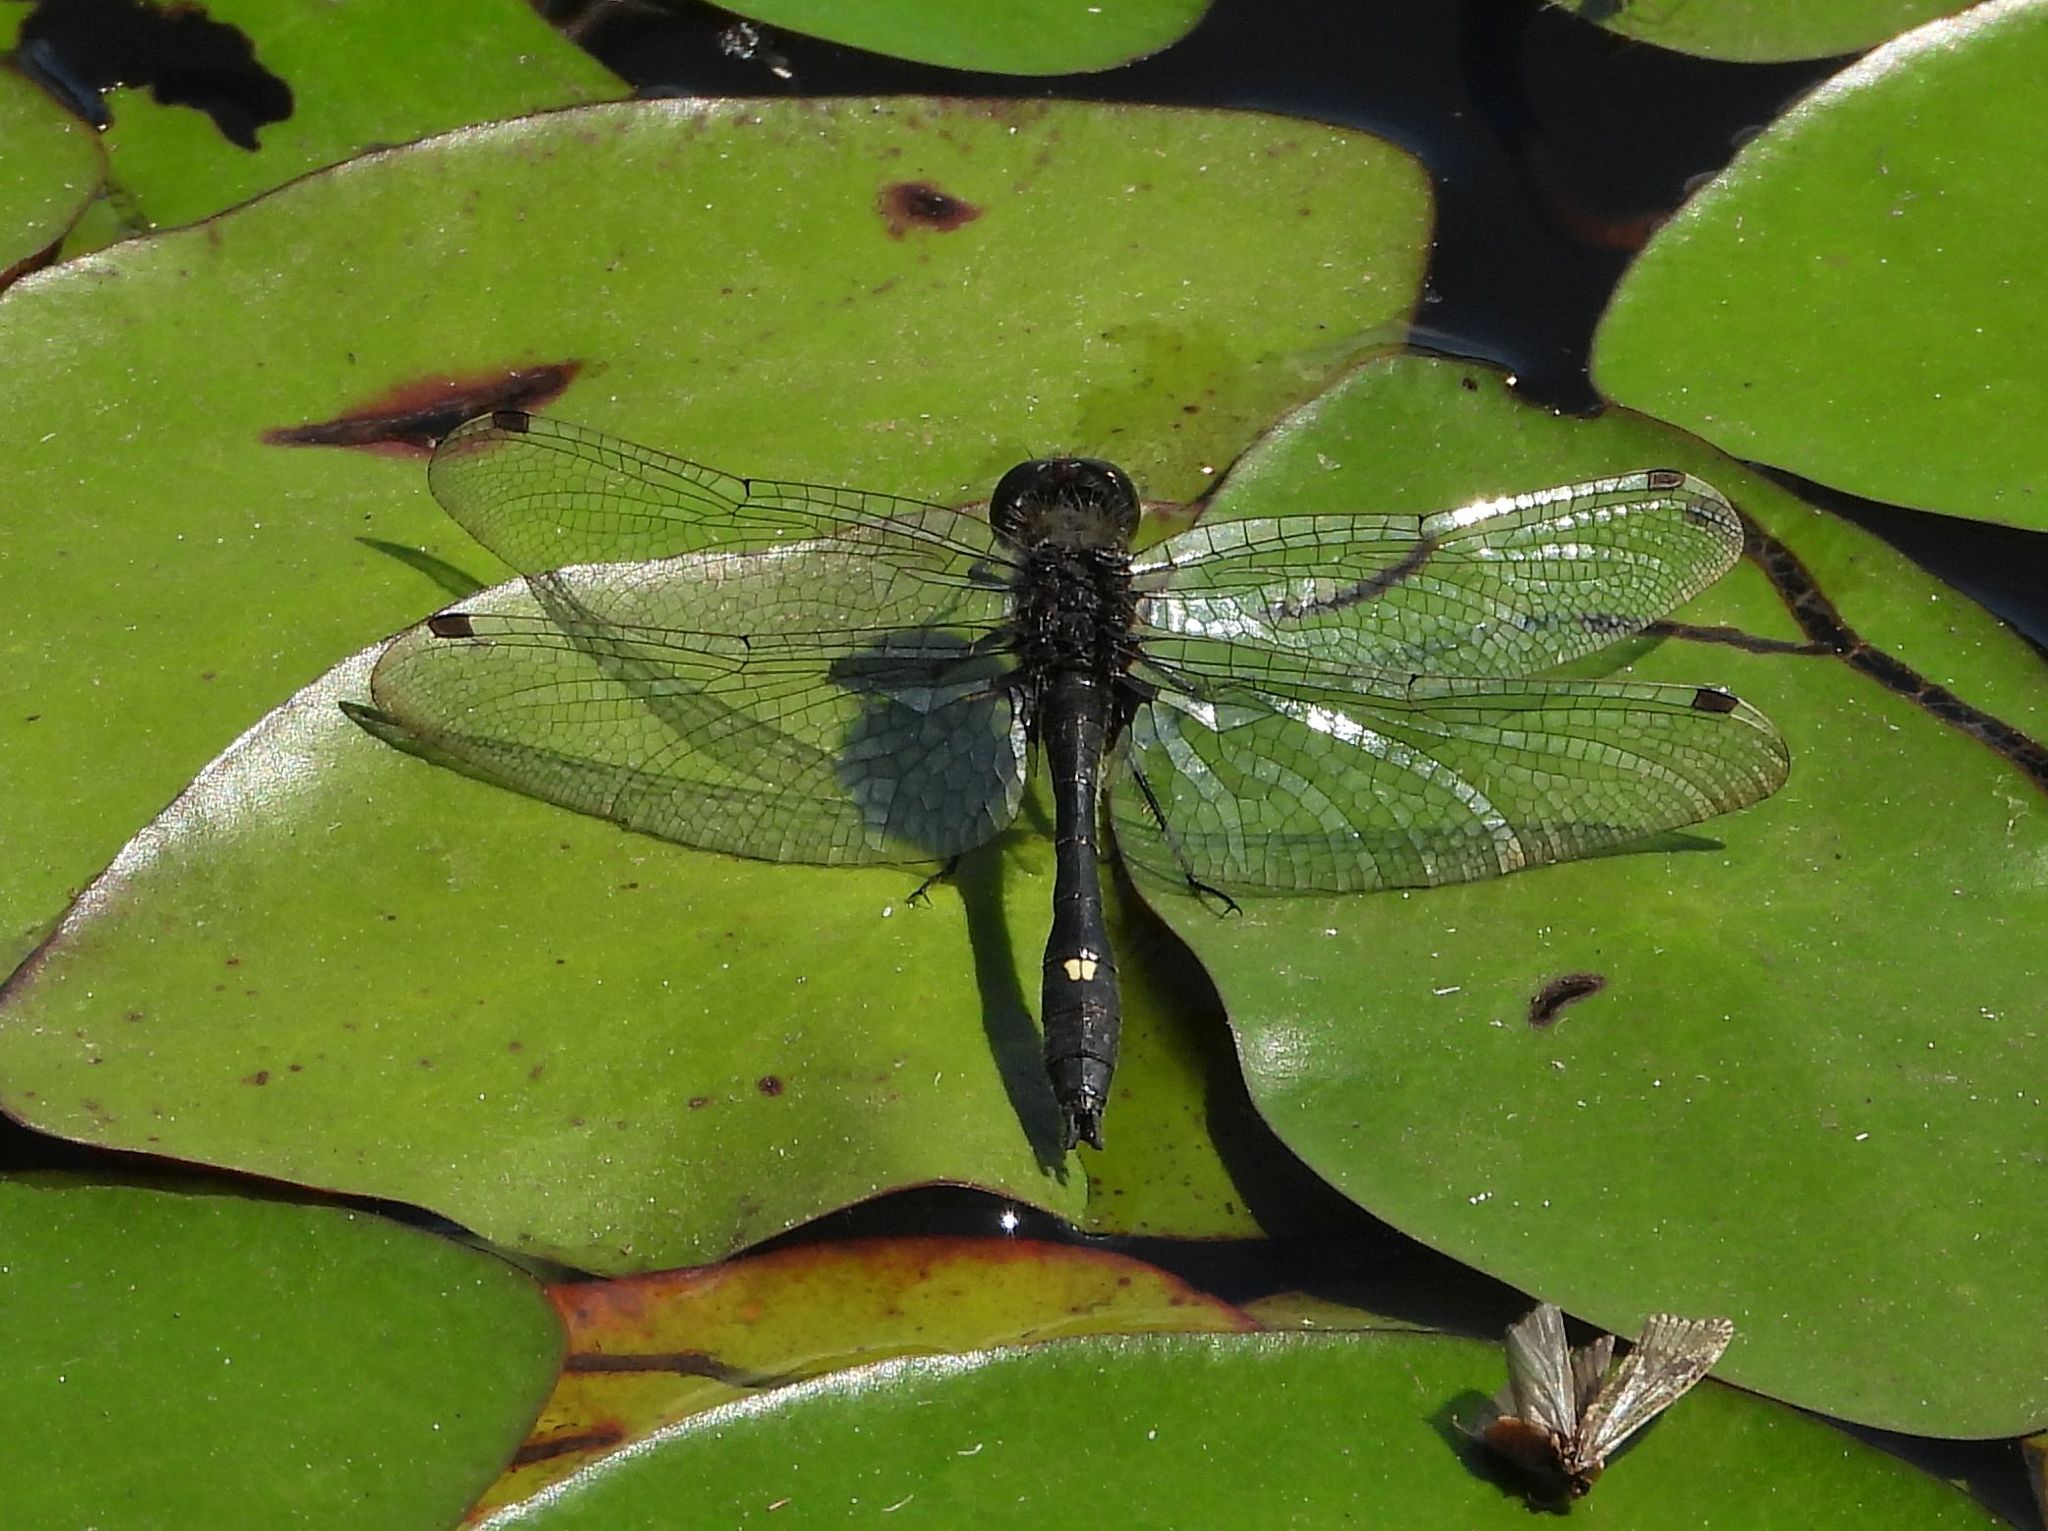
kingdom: Animalia
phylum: Arthropoda
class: Insecta
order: Odonata
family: Libellulidae
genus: Leucorrhinia
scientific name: Leucorrhinia intacta
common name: Dot-tailed whiteface
